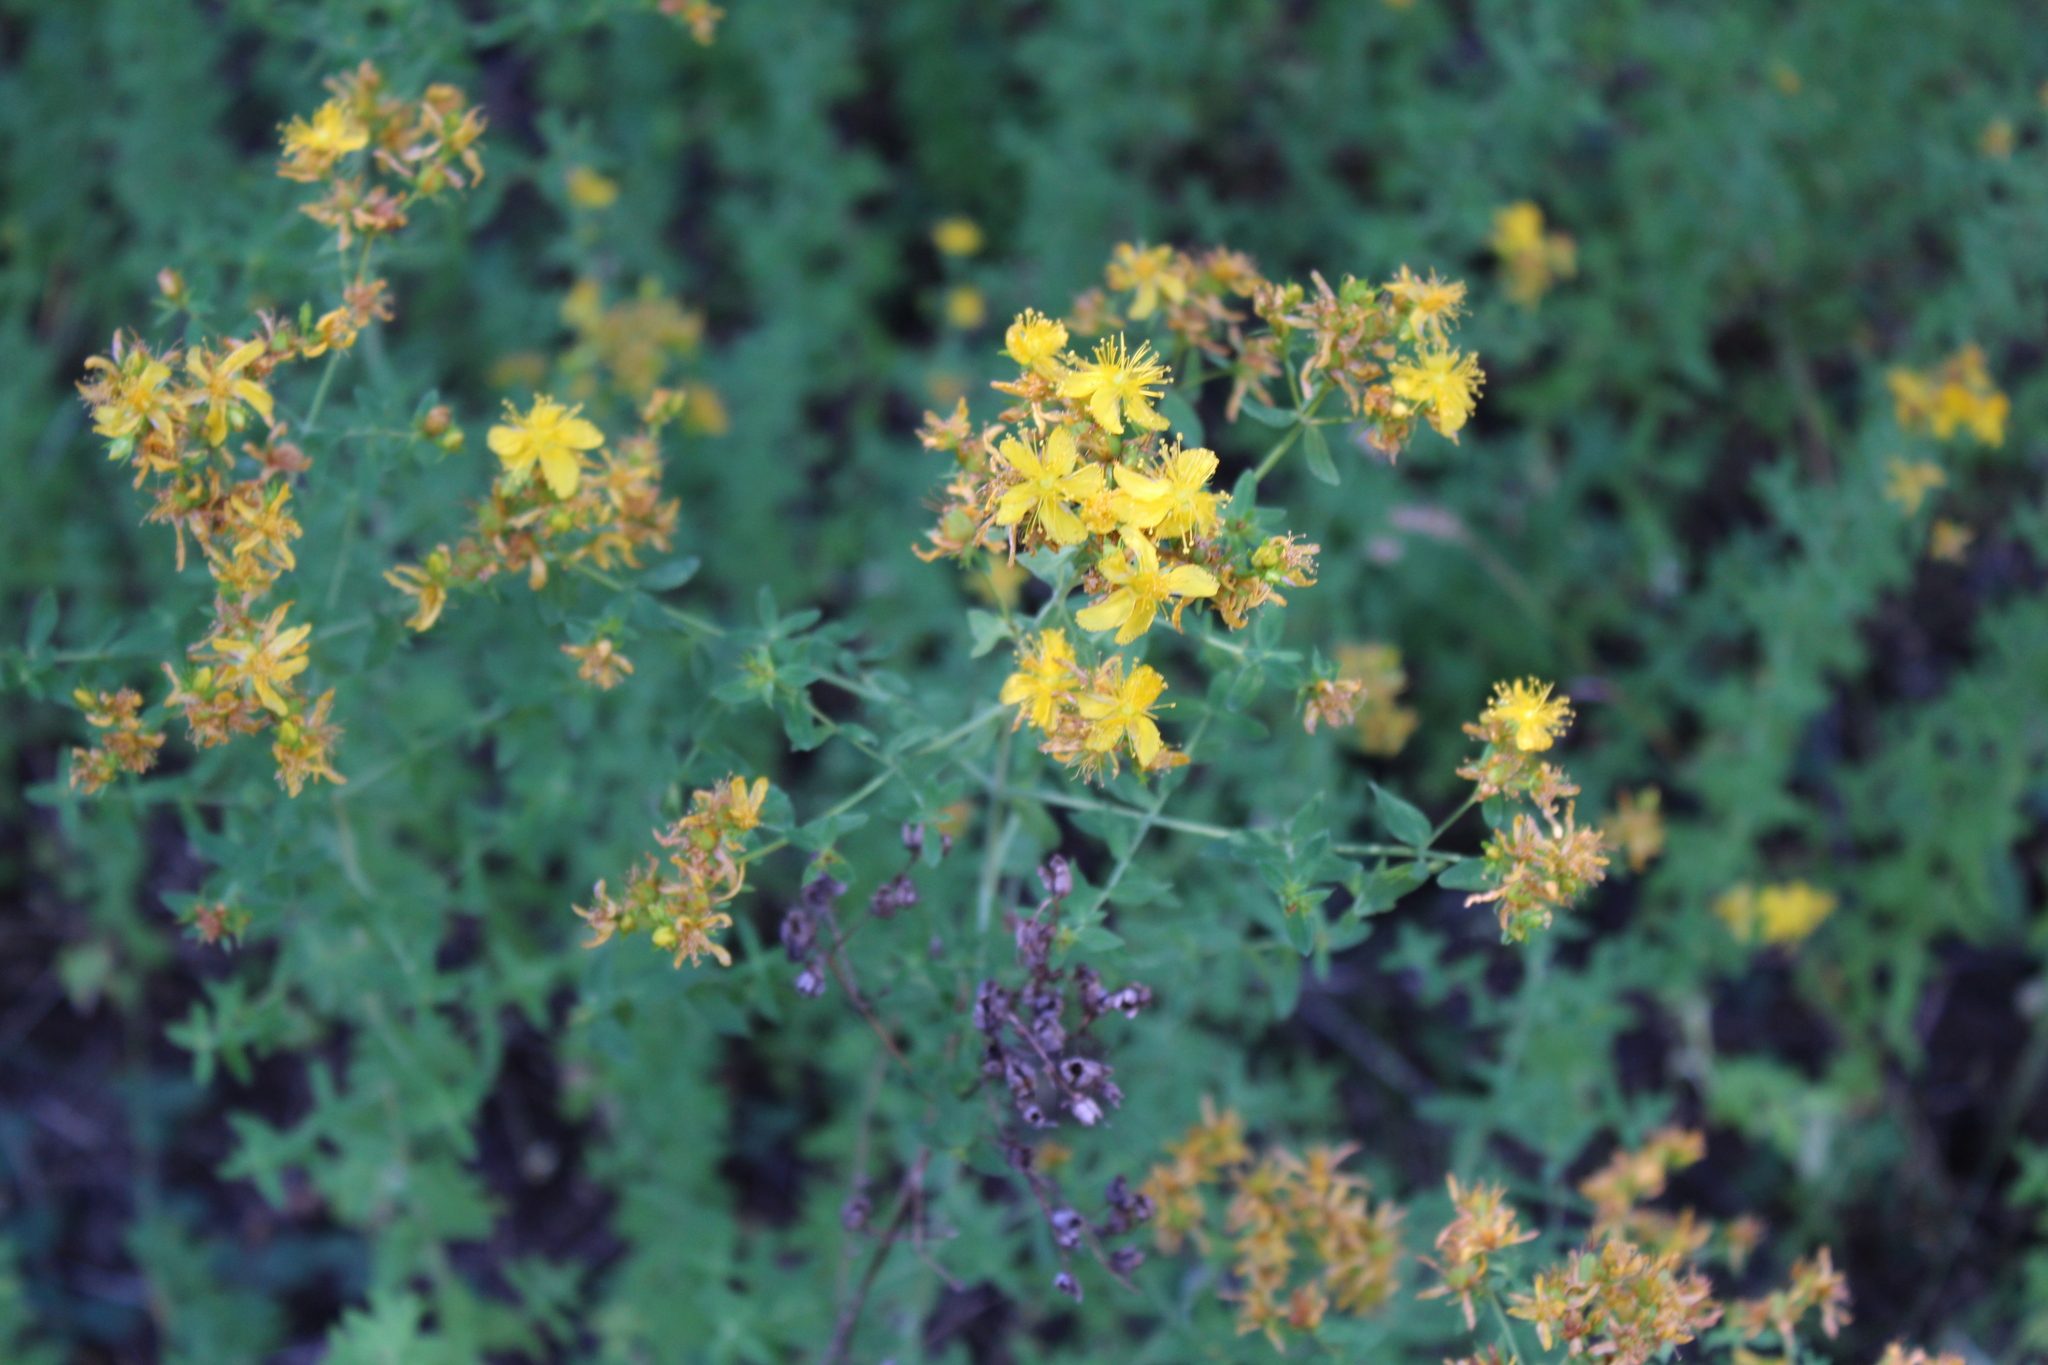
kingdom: Plantae
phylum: Tracheophyta
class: Magnoliopsida
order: Malpighiales
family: Hypericaceae
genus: Hypericum
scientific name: Hypericum perforatum
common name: Common st. johnswort
